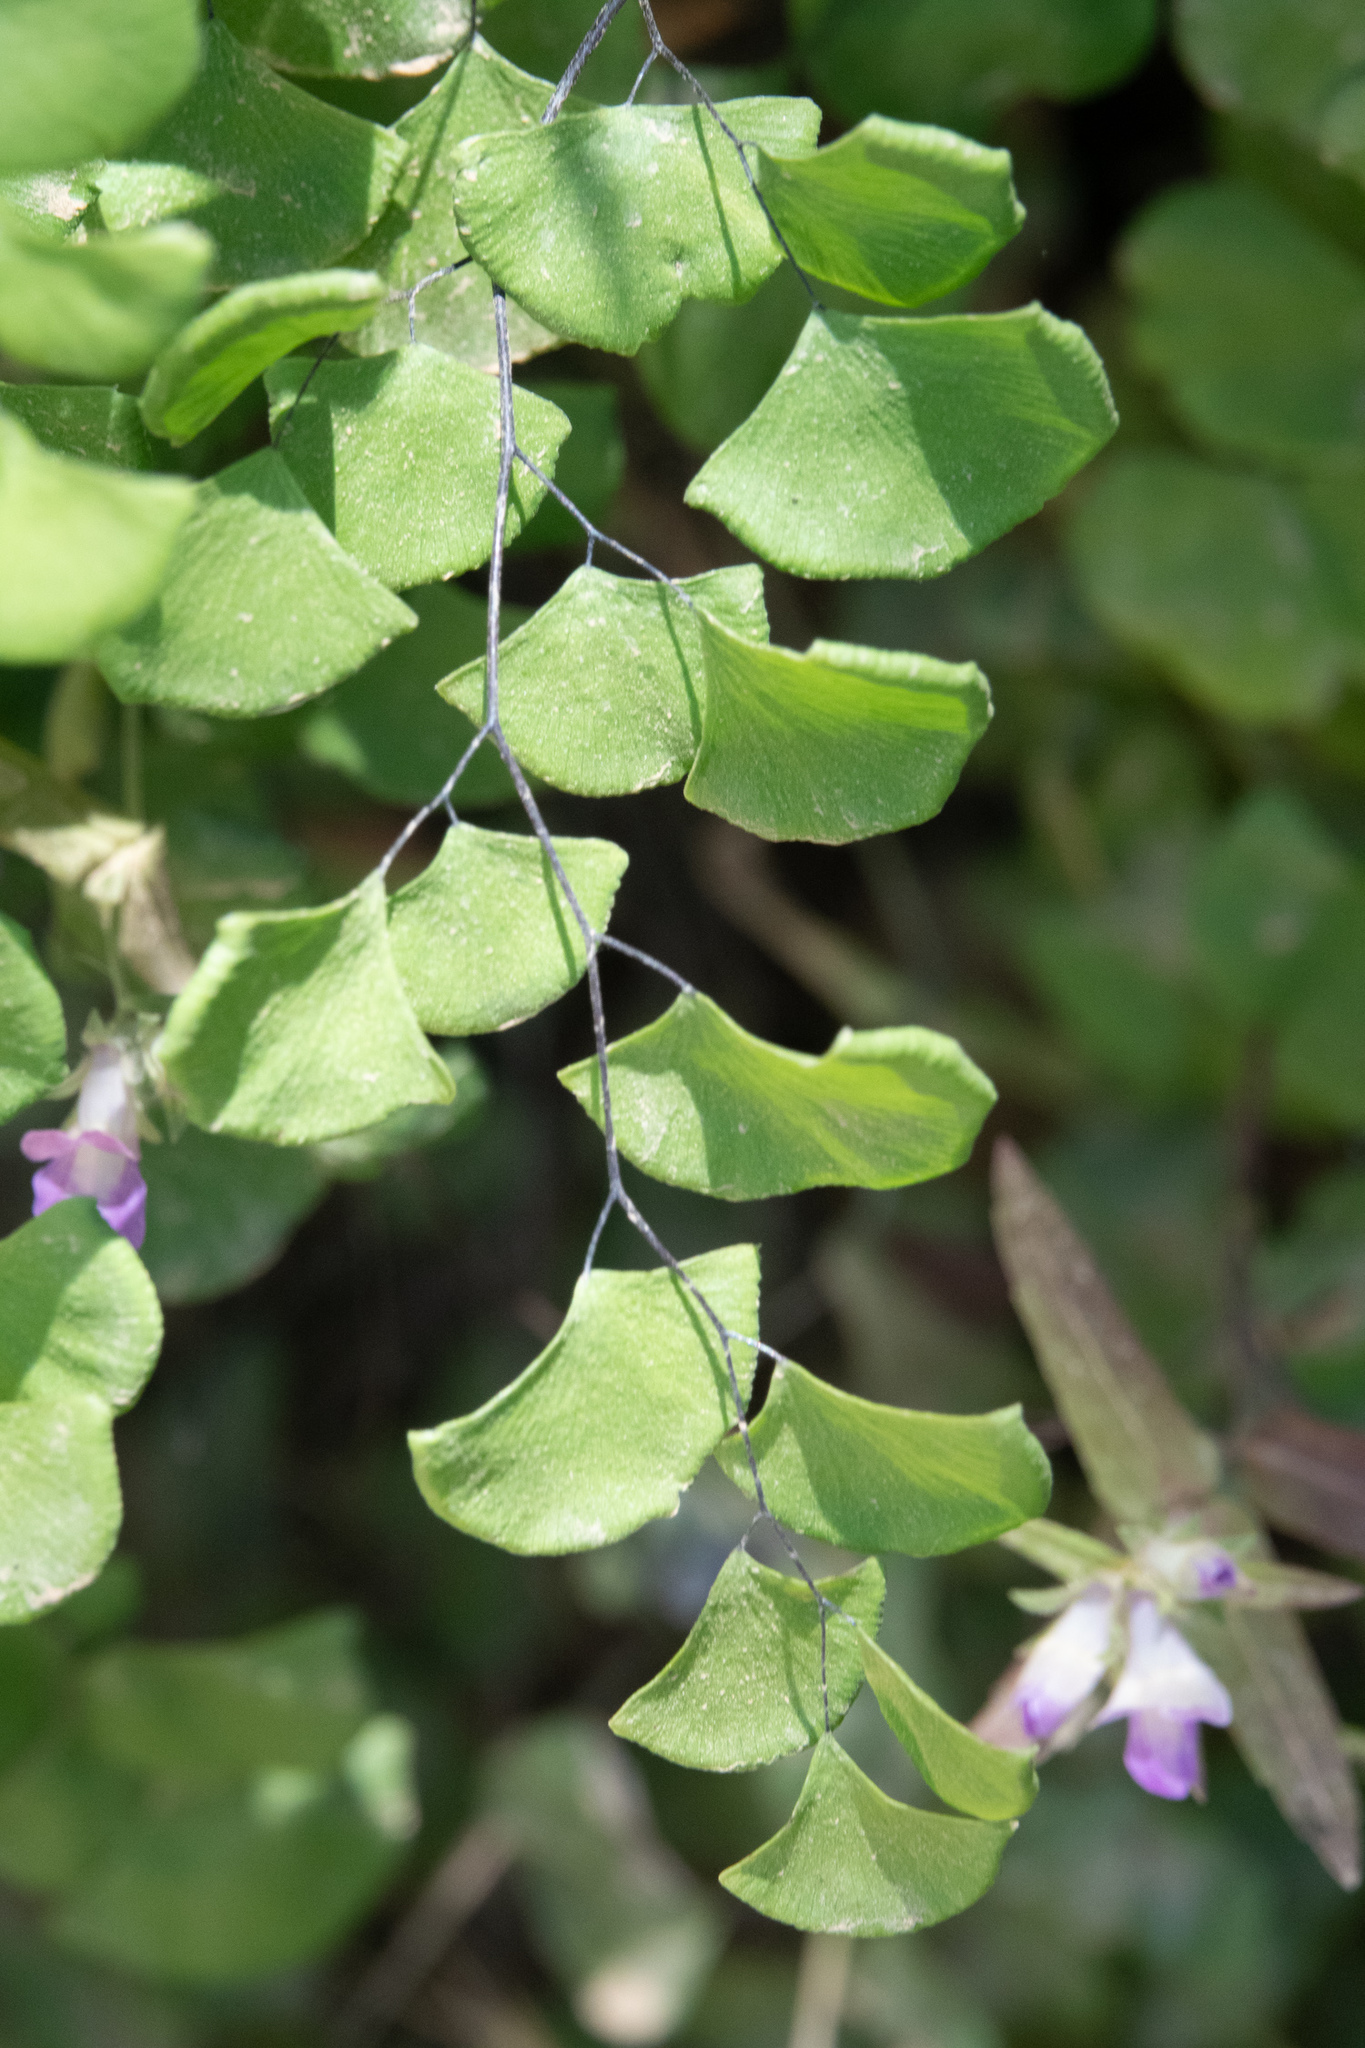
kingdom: Plantae
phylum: Tracheophyta
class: Polypodiopsida
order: Polypodiales
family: Pteridaceae
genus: Adiantum
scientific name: Adiantum jordanii
